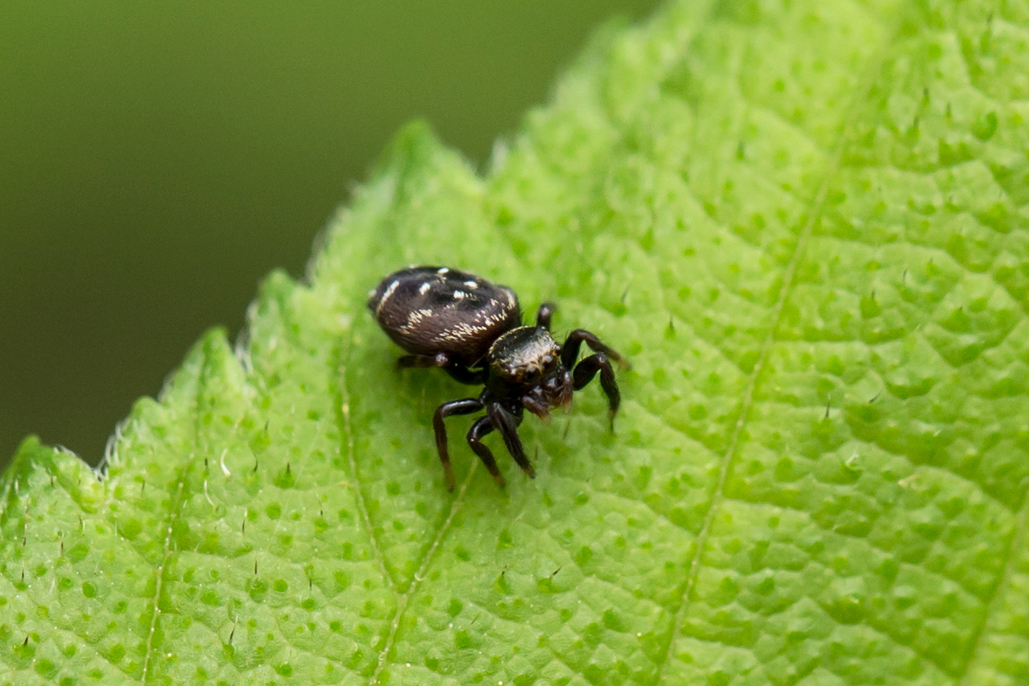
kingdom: Animalia
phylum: Arthropoda
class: Arachnida
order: Araneae
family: Salticidae
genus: Paraphidippus
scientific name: Paraphidippus aurantius
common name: Jumping spiders
